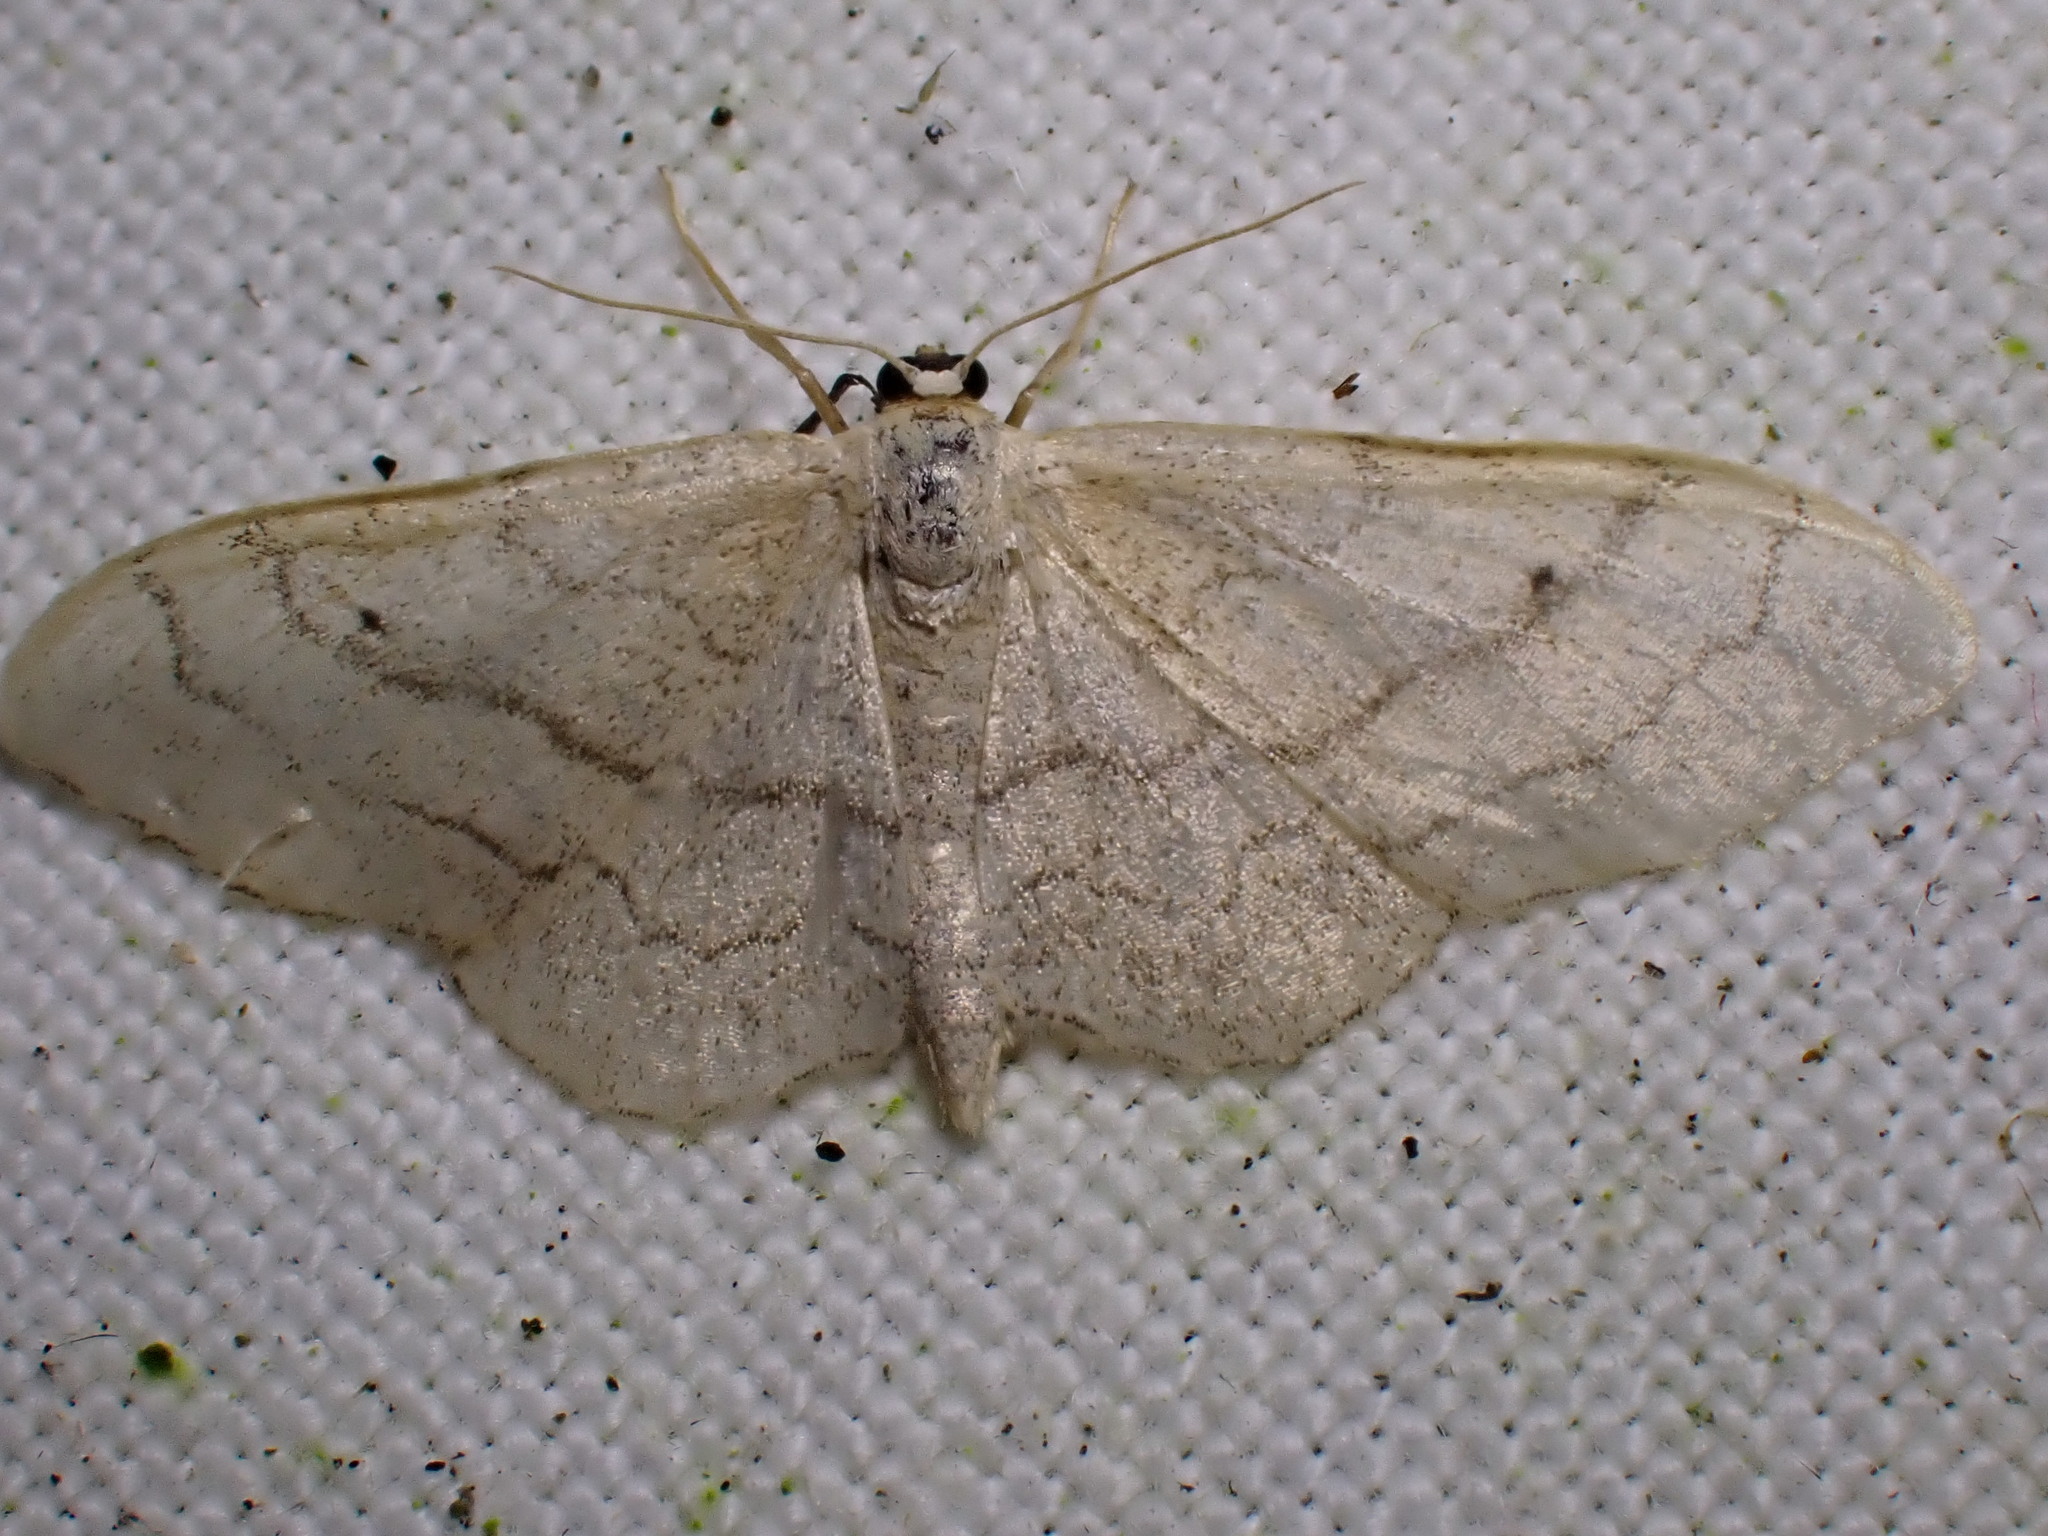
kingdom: Animalia
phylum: Arthropoda
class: Insecta
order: Lepidoptera
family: Geometridae
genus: Idaea
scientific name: Idaea aversata
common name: Riband wave
